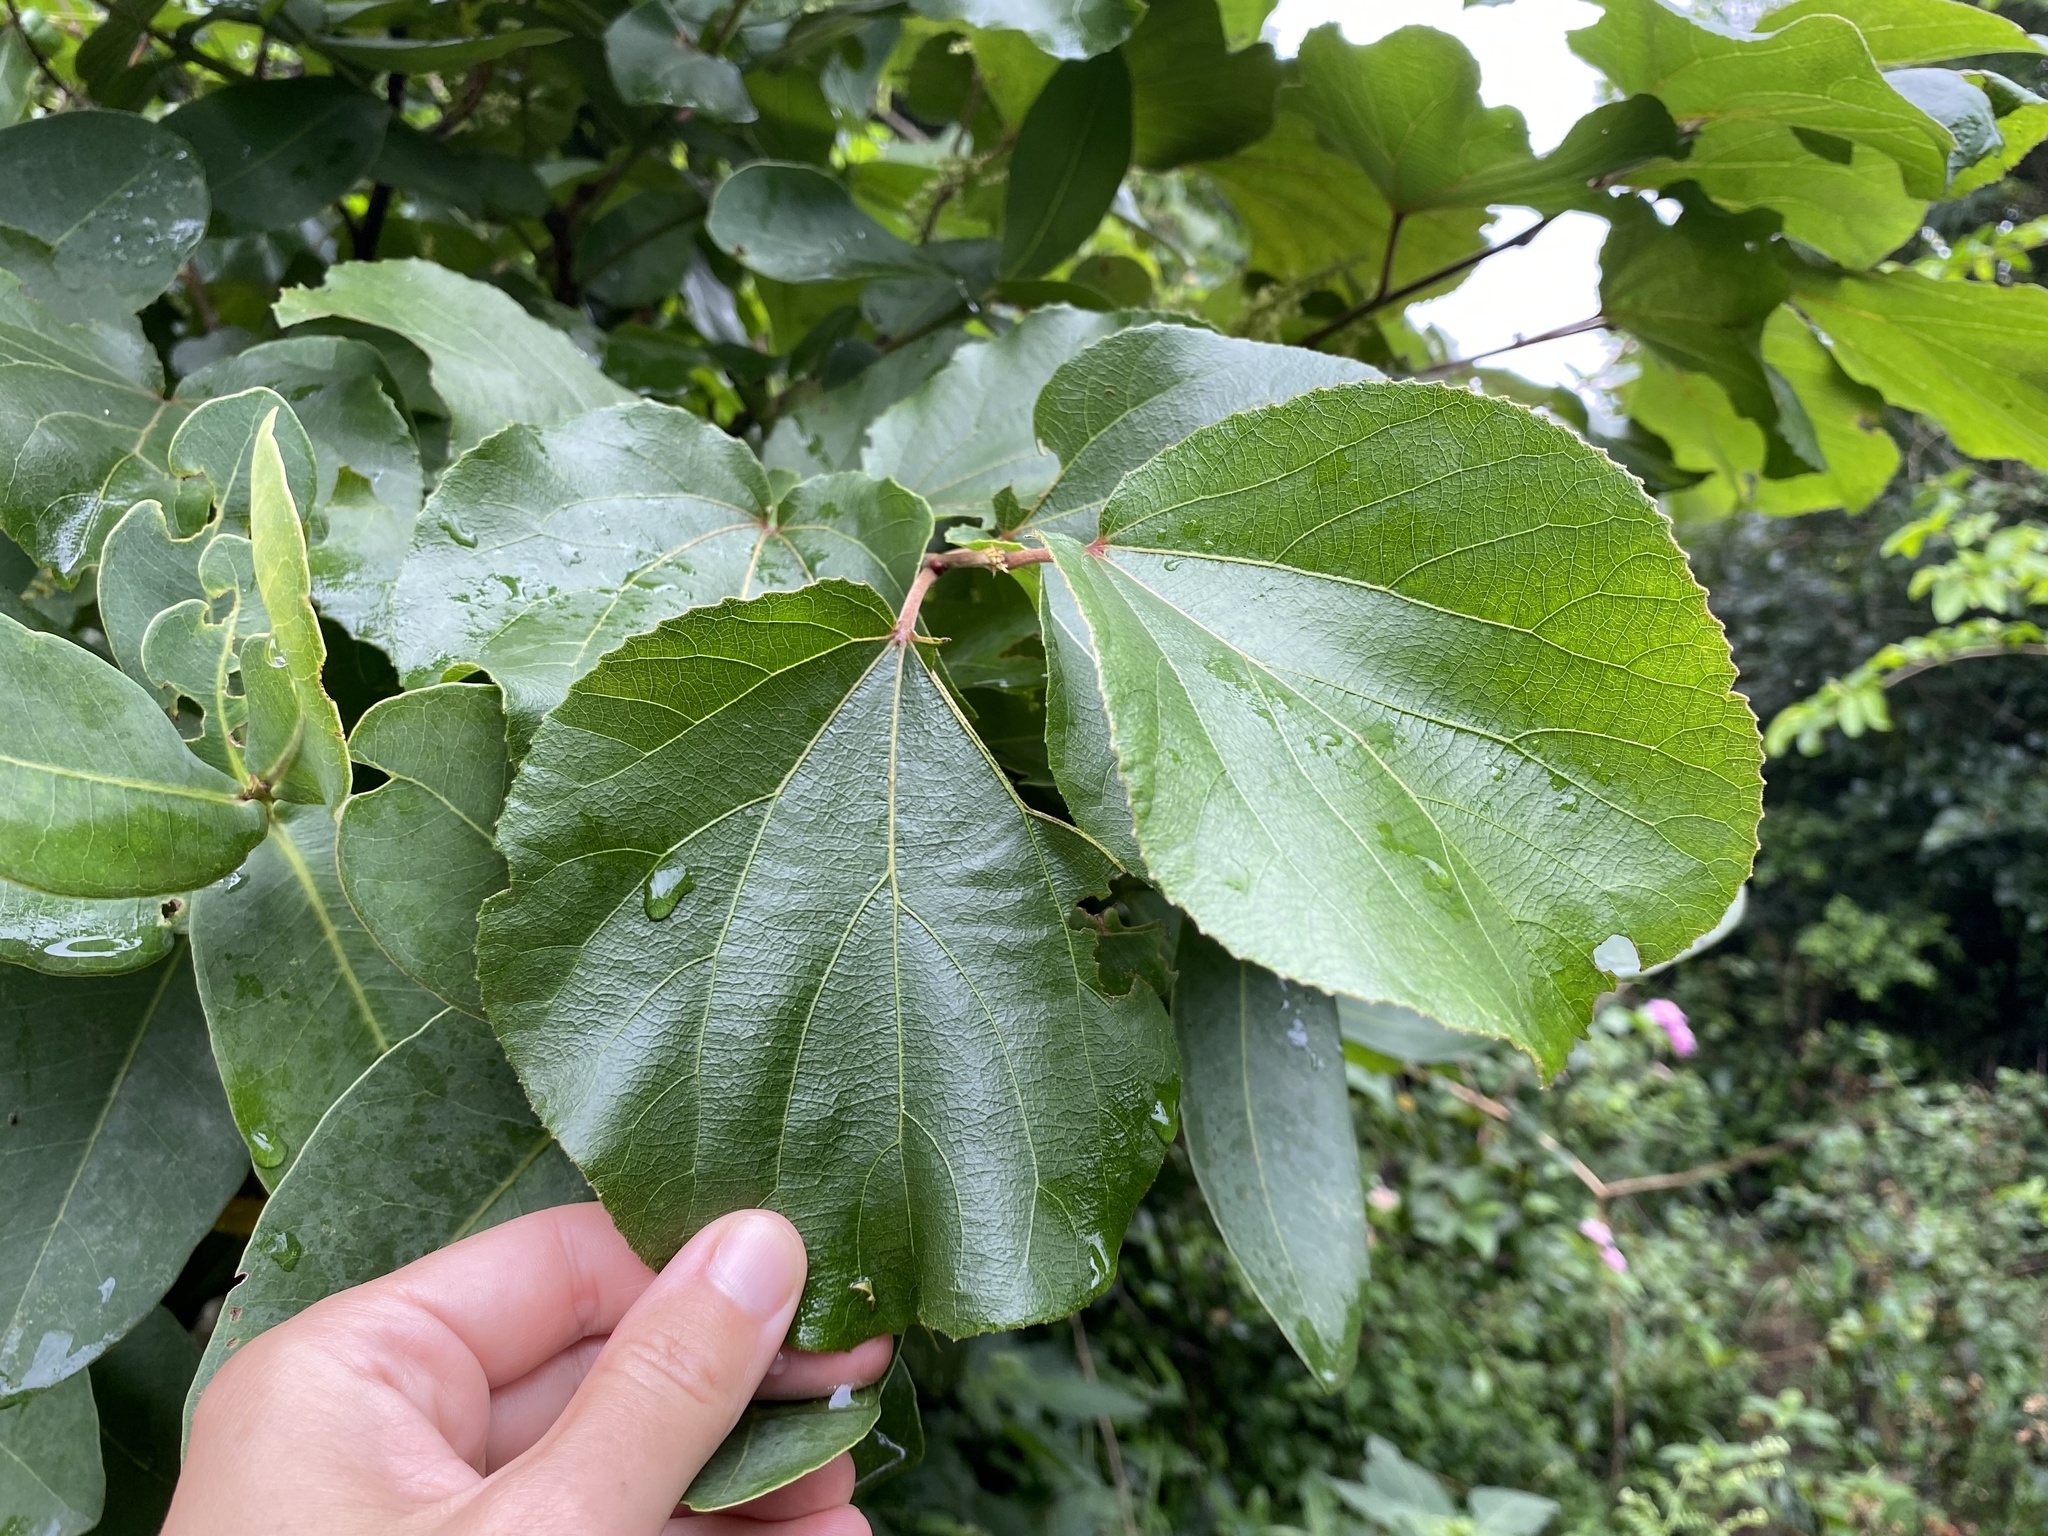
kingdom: Plantae
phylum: Tracheophyta
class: Magnoliopsida
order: Malpighiales
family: Salicaceae
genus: Trimeria
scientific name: Trimeria grandifolia
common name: Wild mulberry
